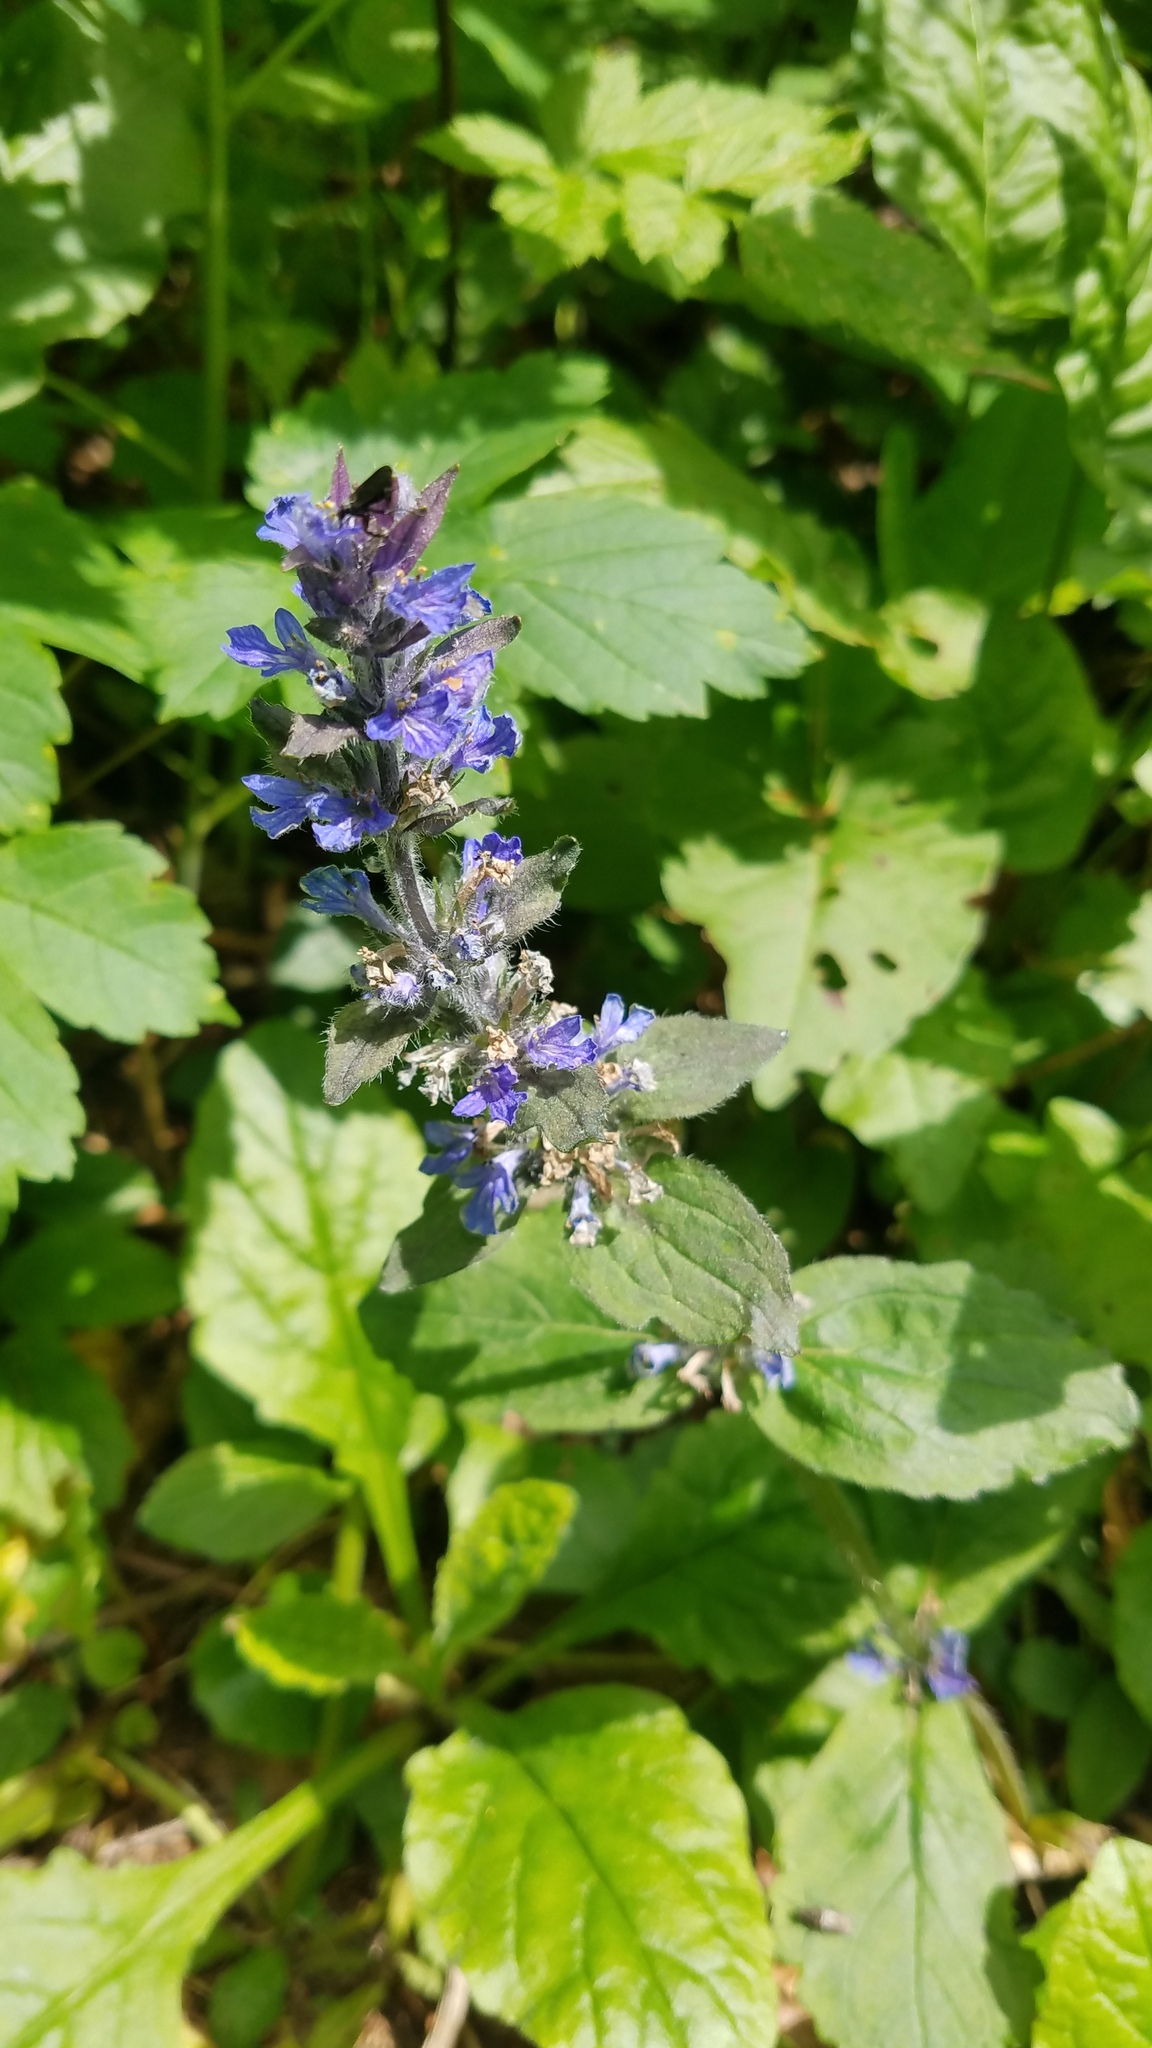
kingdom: Plantae
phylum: Tracheophyta
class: Magnoliopsida
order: Lamiales
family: Lamiaceae
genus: Ajuga
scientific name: Ajuga reptans
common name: Bugle
